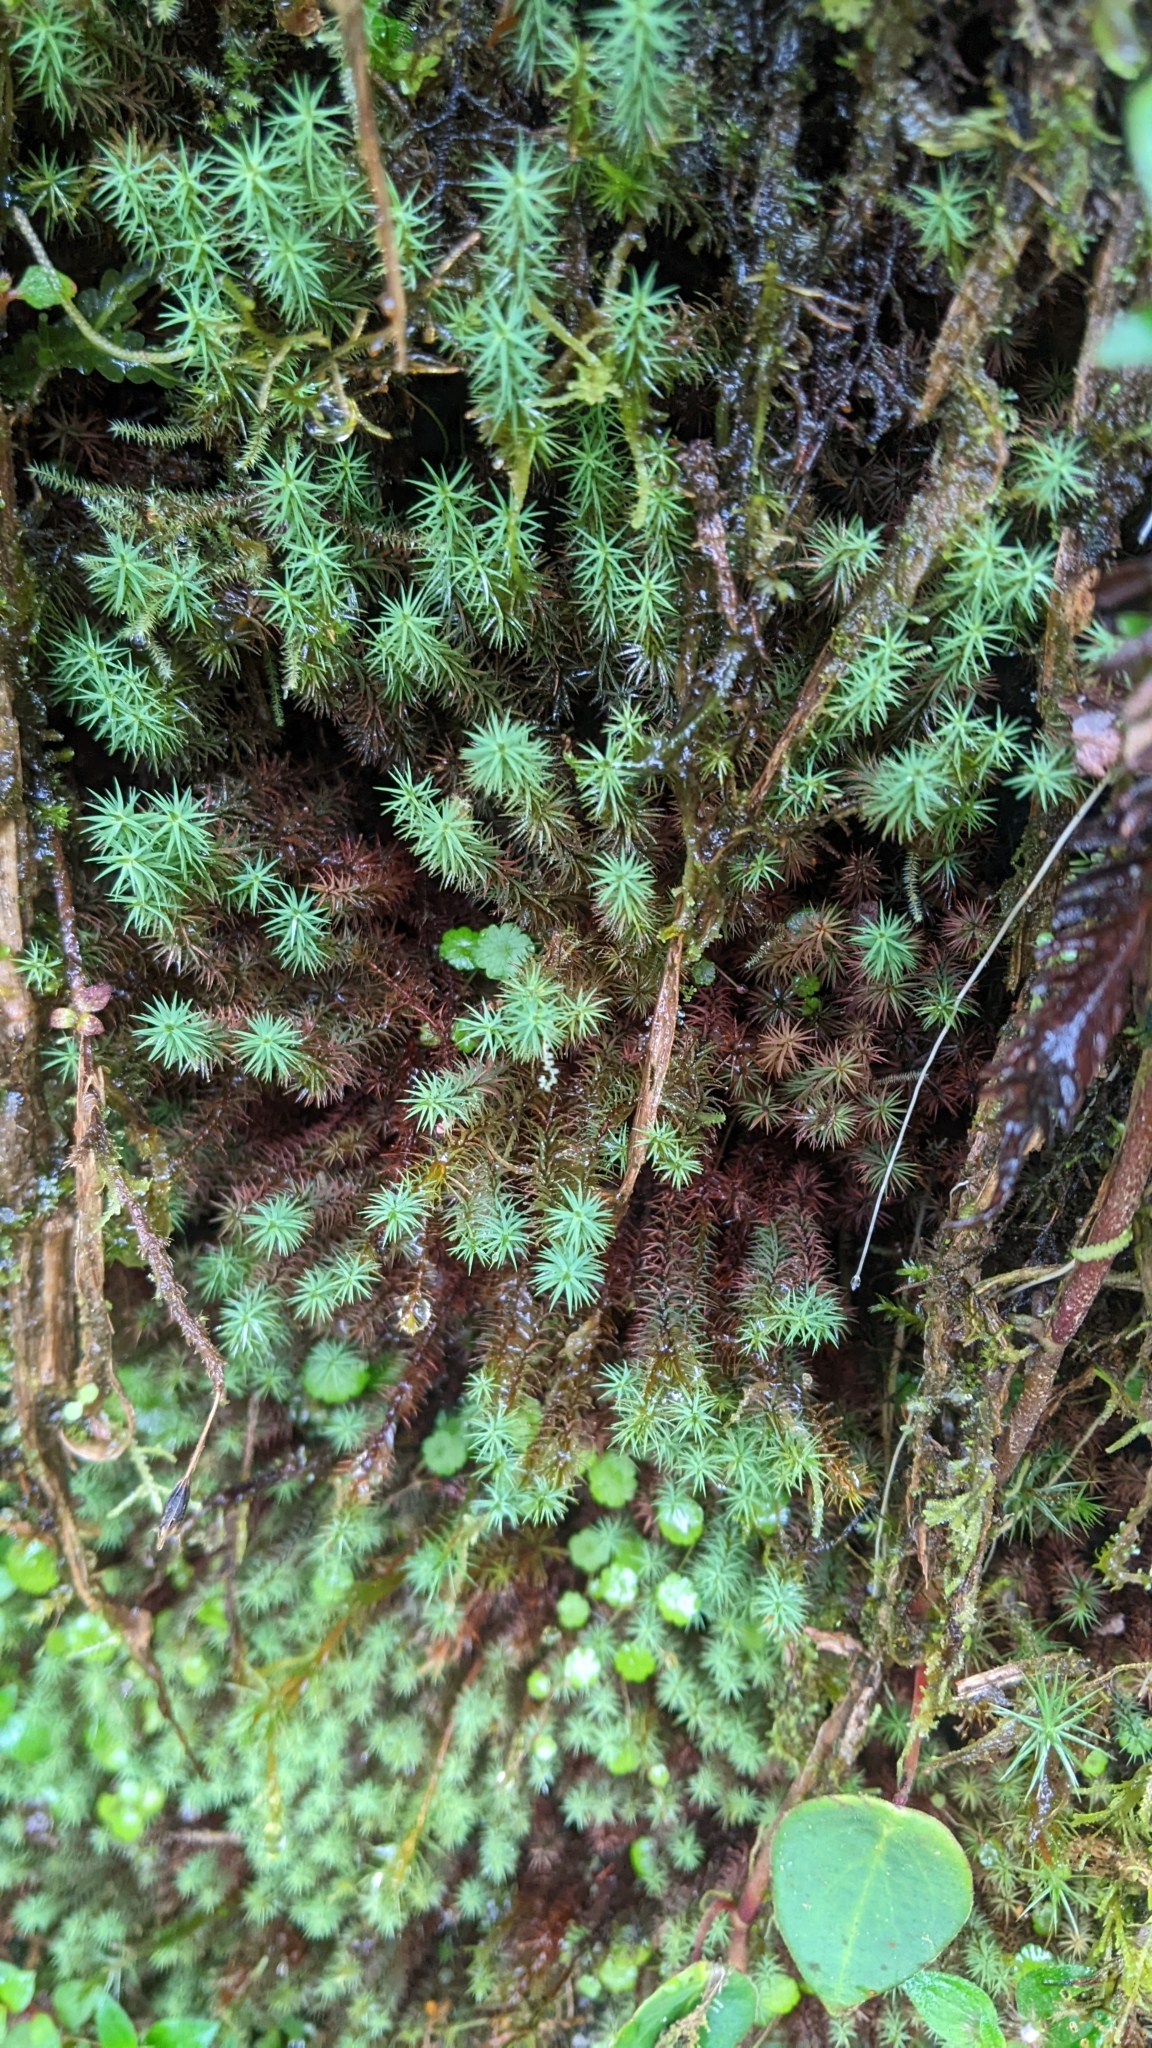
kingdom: Plantae
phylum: Bryophyta
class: Polytrichopsida
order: Polytrichales
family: Polytrichaceae
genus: Polytrichum
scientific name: Polytrichum juniperinum
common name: Juniper haircap moss
